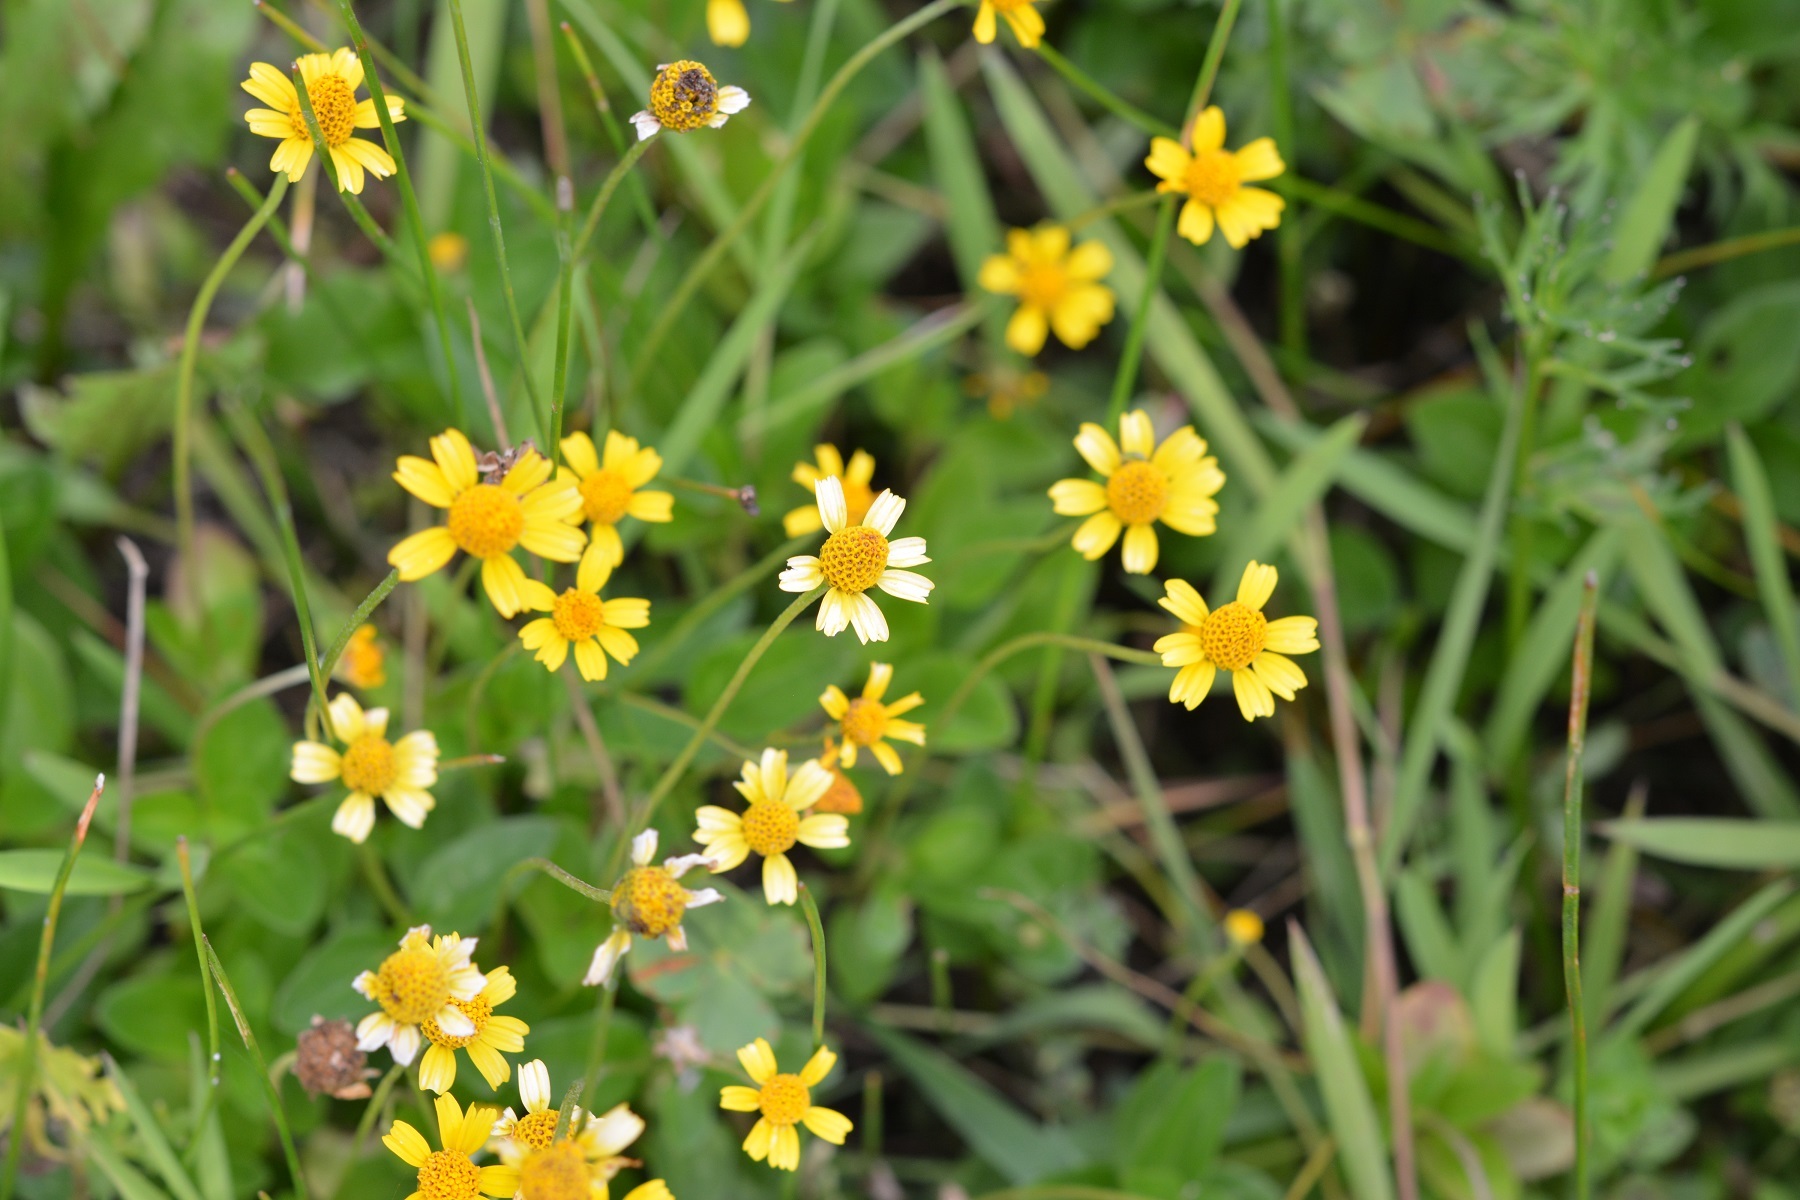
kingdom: Plantae
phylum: Tracheophyta
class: Magnoliopsida
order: Asterales
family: Asteraceae
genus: Acmella
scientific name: Acmella repens
